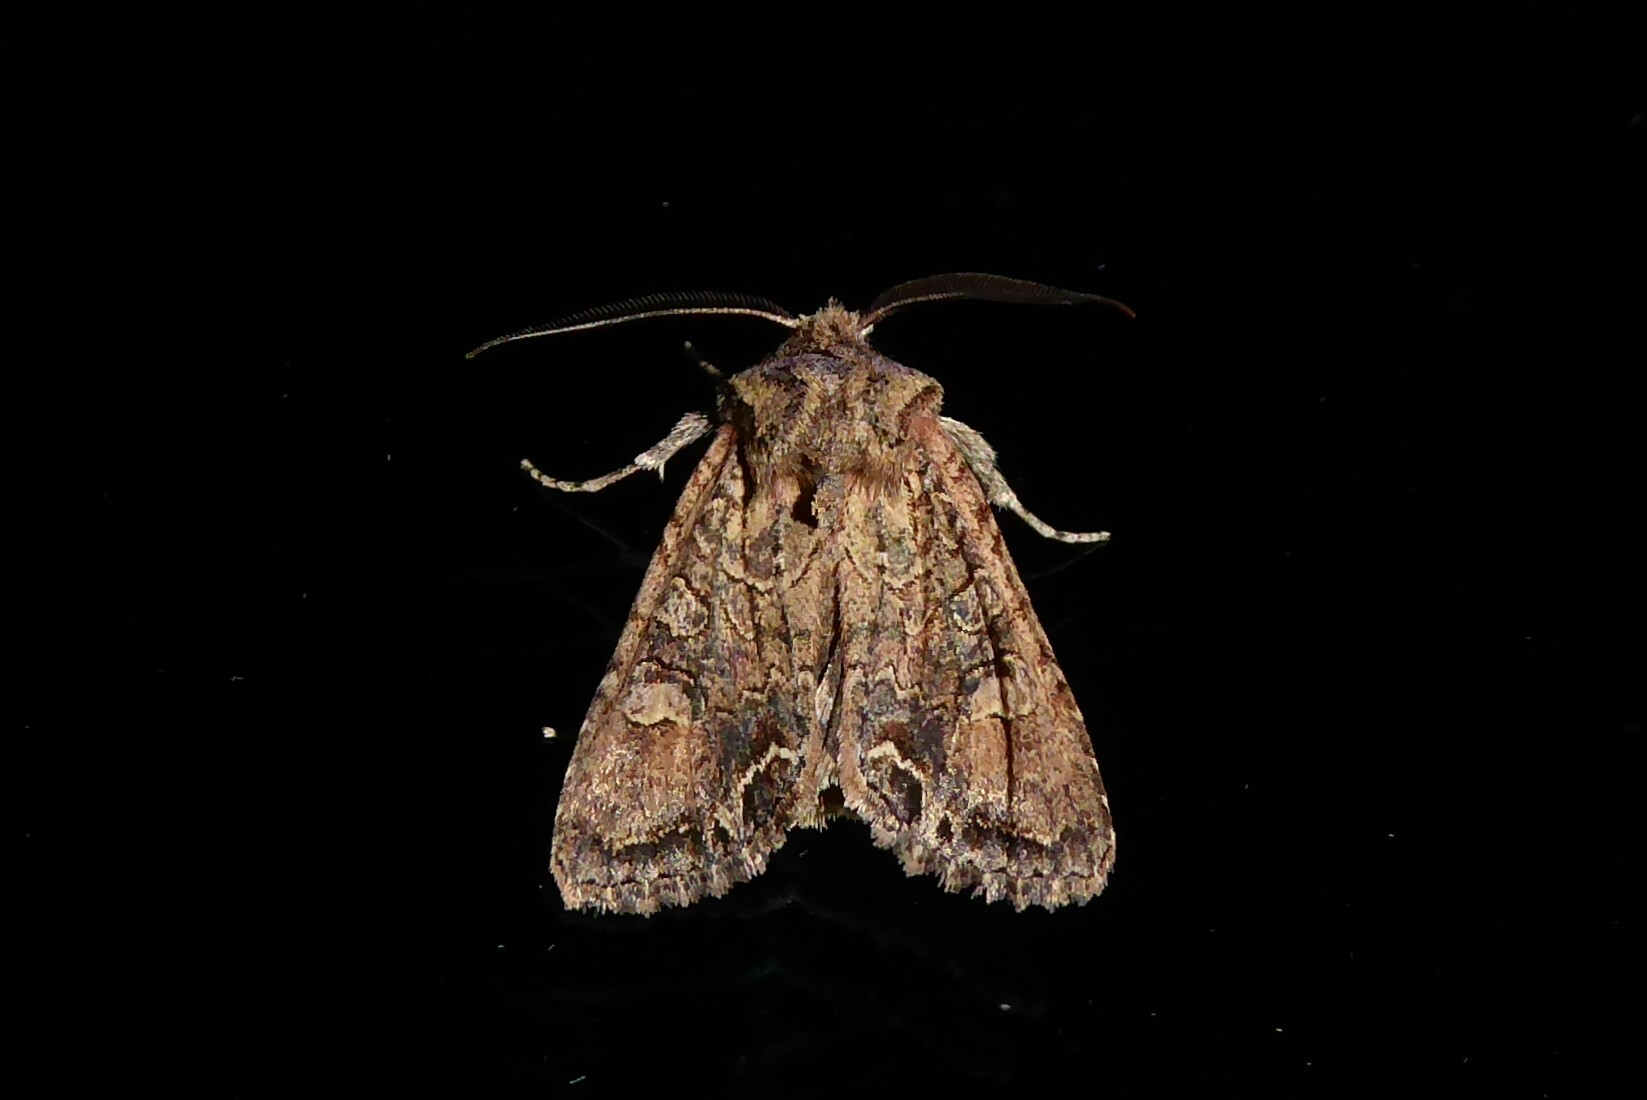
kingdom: Animalia
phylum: Arthropoda
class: Insecta
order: Lepidoptera
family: Noctuidae
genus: Ichneutica
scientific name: Ichneutica skelloni
